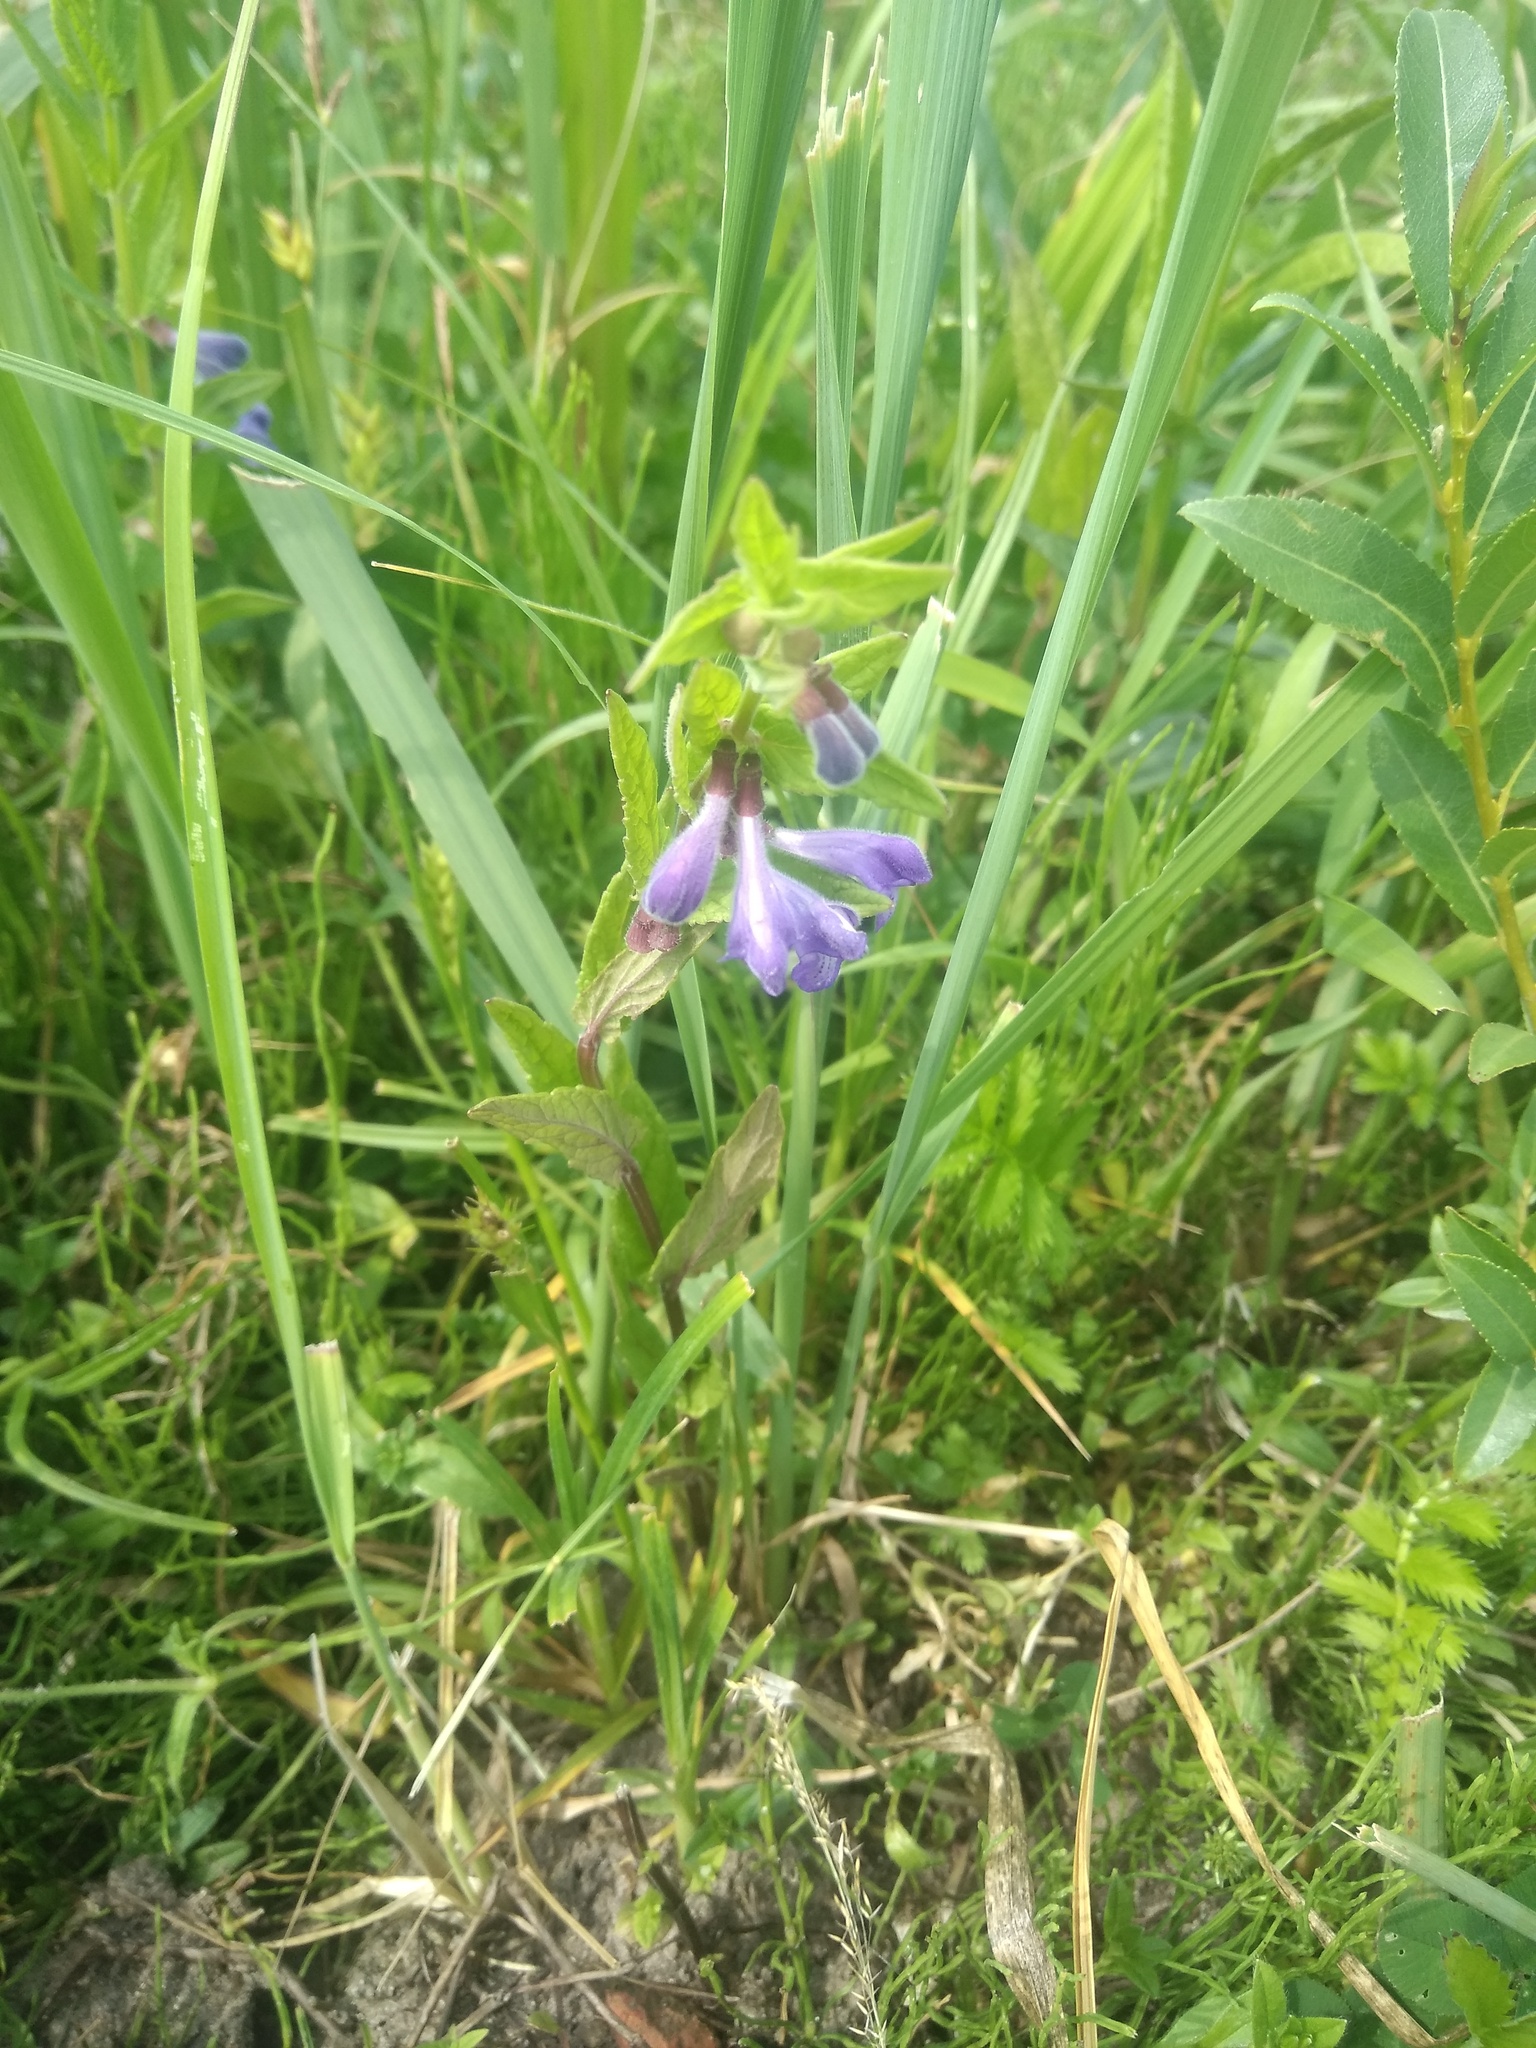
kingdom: Plantae
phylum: Tracheophyta
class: Magnoliopsida
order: Lamiales
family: Lamiaceae
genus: Scutellaria
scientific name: Scutellaria galericulata
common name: Skullcap
